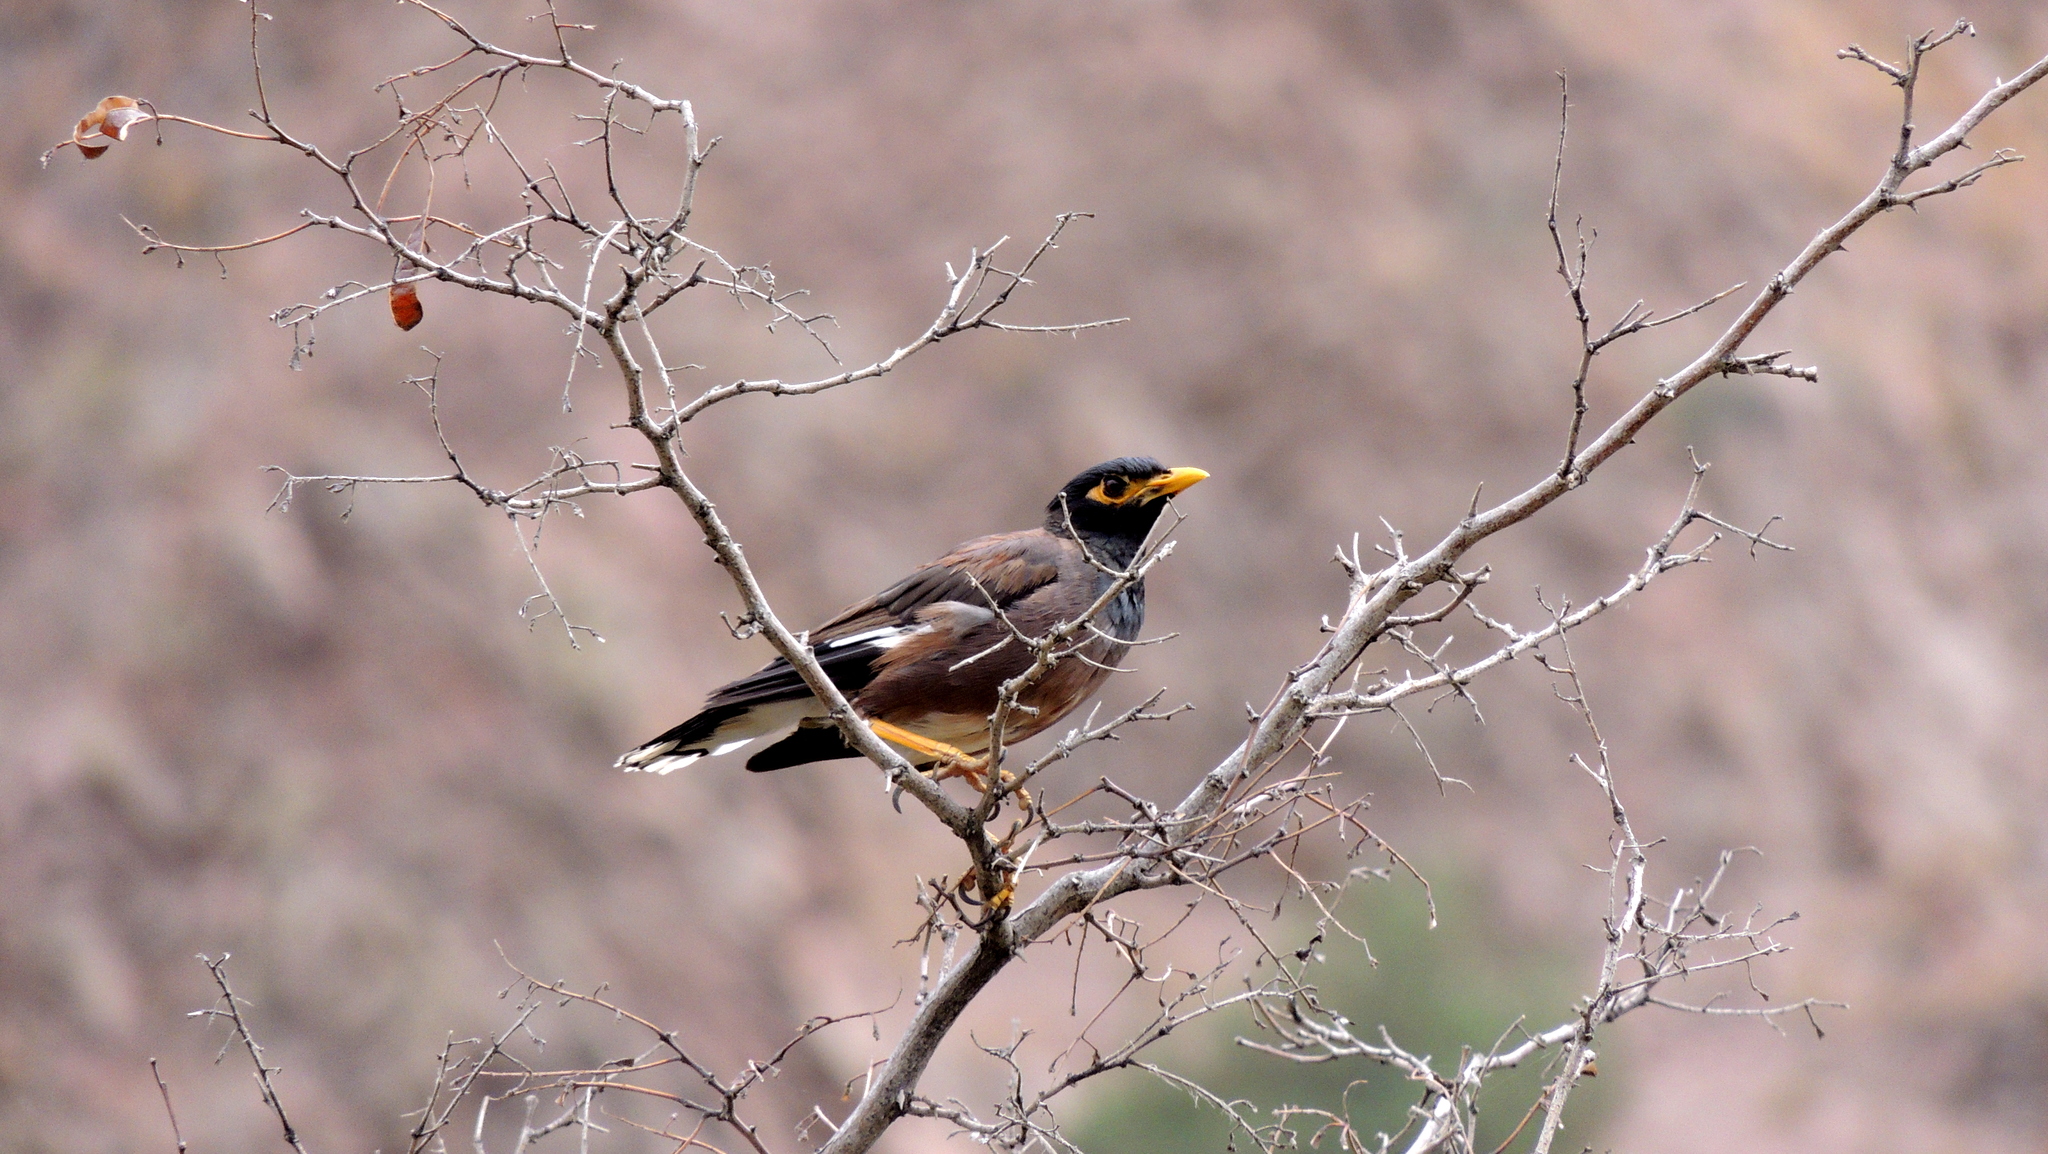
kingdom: Animalia
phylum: Chordata
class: Aves
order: Passeriformes
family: Sturnidae
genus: Acridotheres
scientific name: Acridotheres tristis
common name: Common myna
